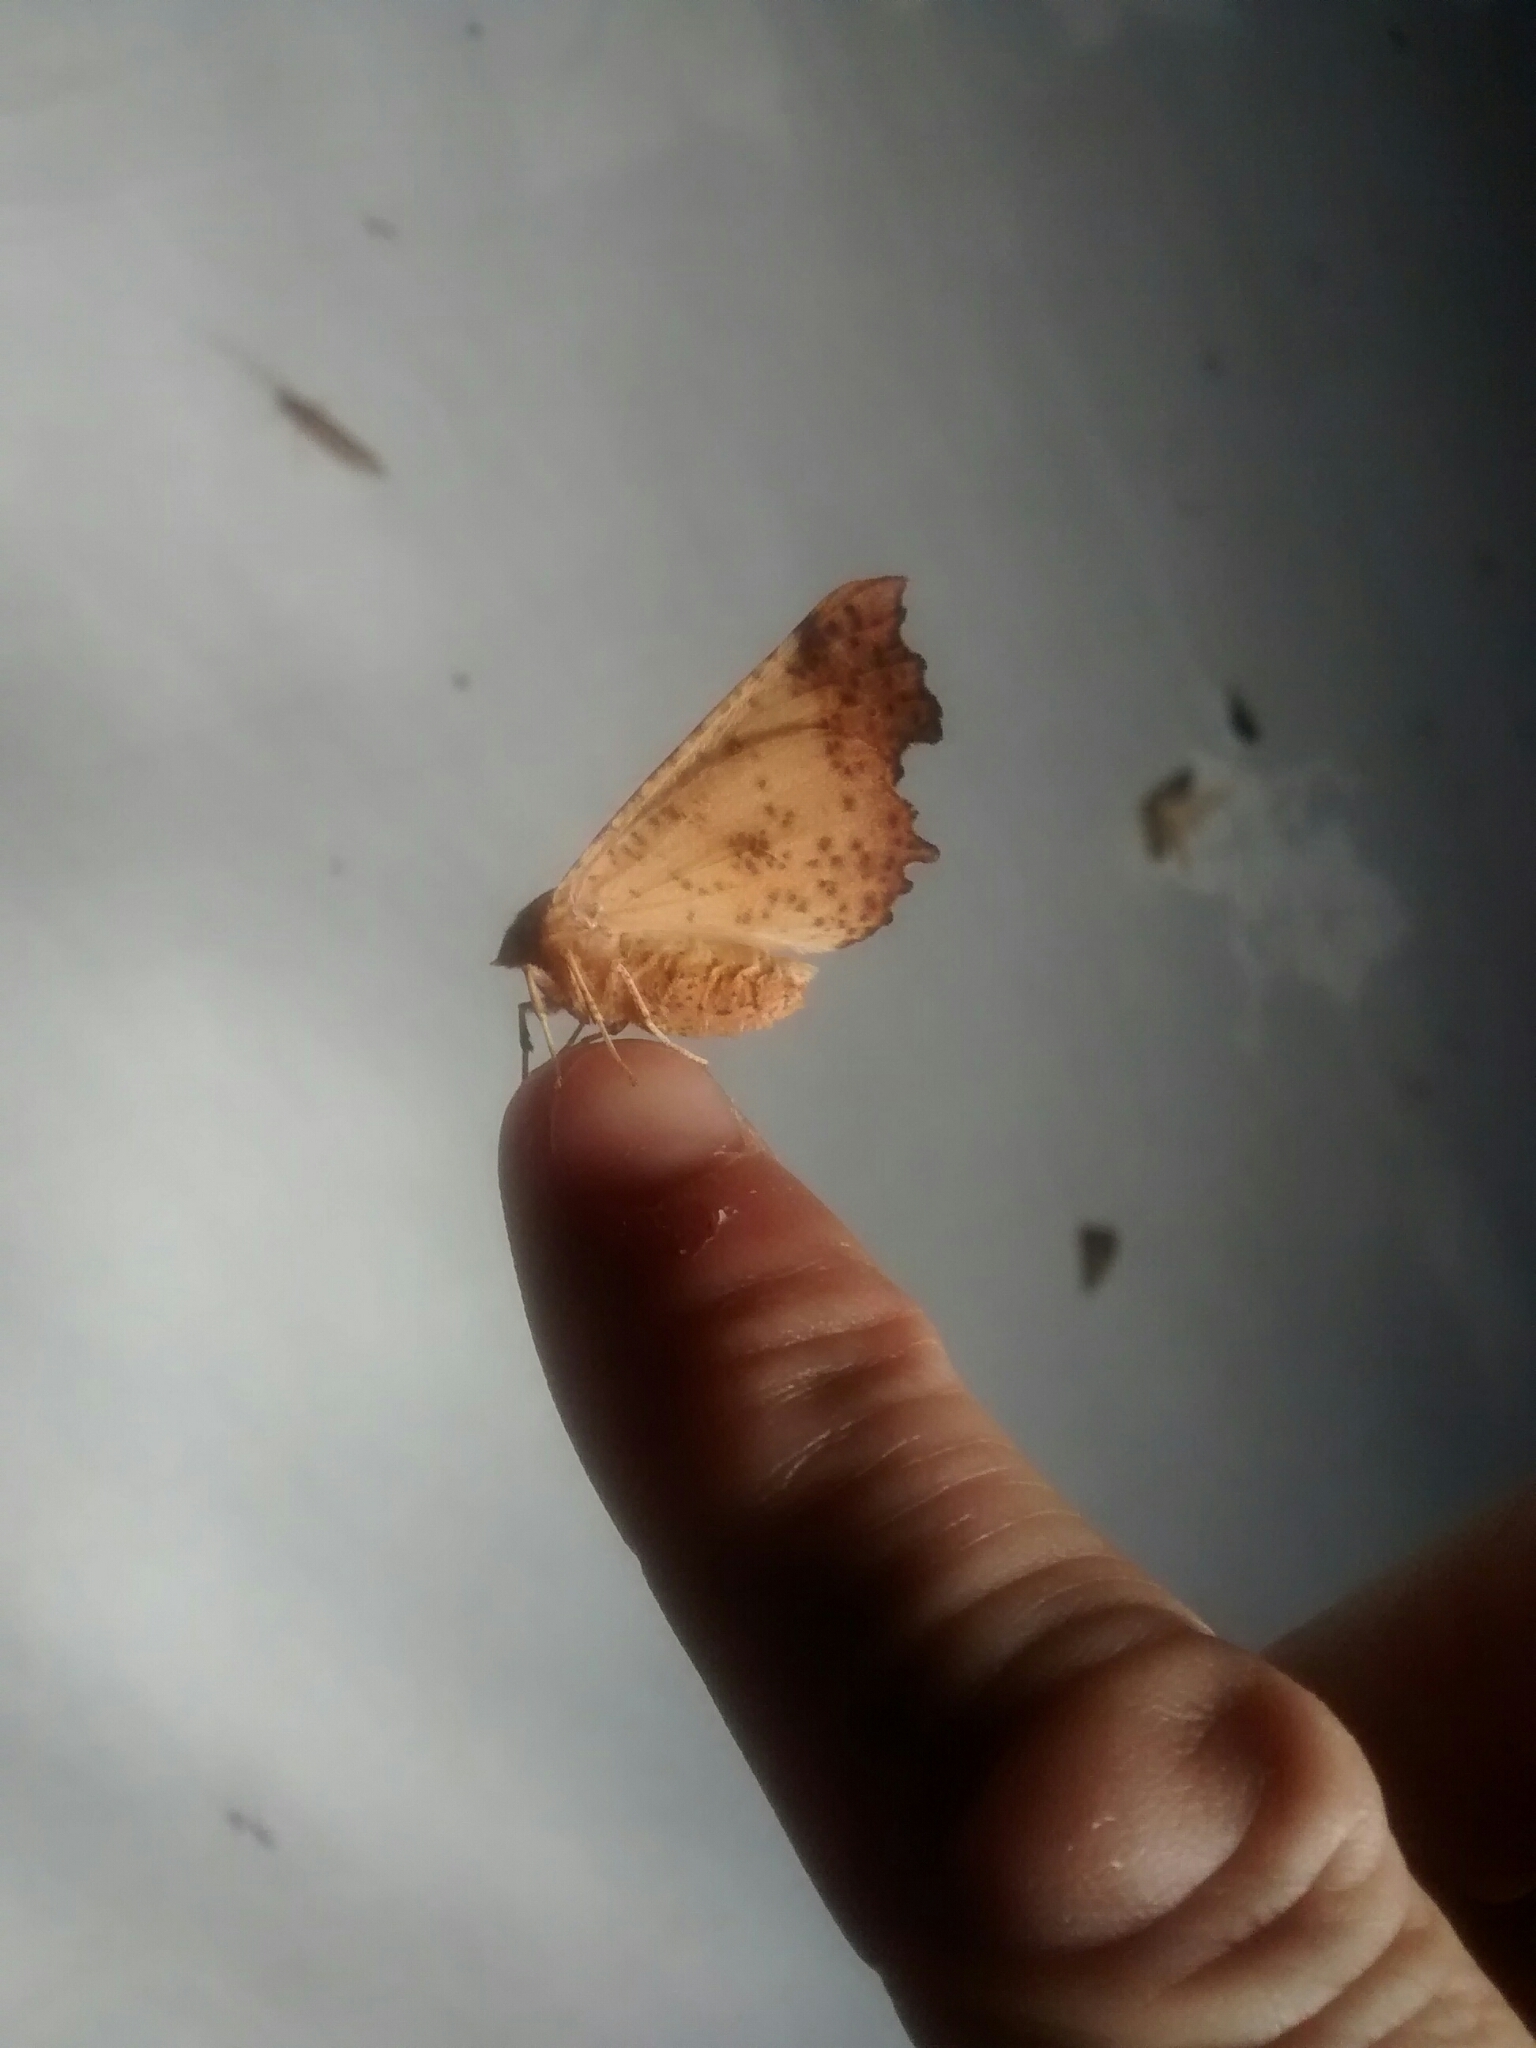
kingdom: Animalia
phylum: Arthropoda
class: Insecta
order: Lepidoptera
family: Geometridae
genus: Ennomos
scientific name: Ennomos magnaria
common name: Maple spanworm
